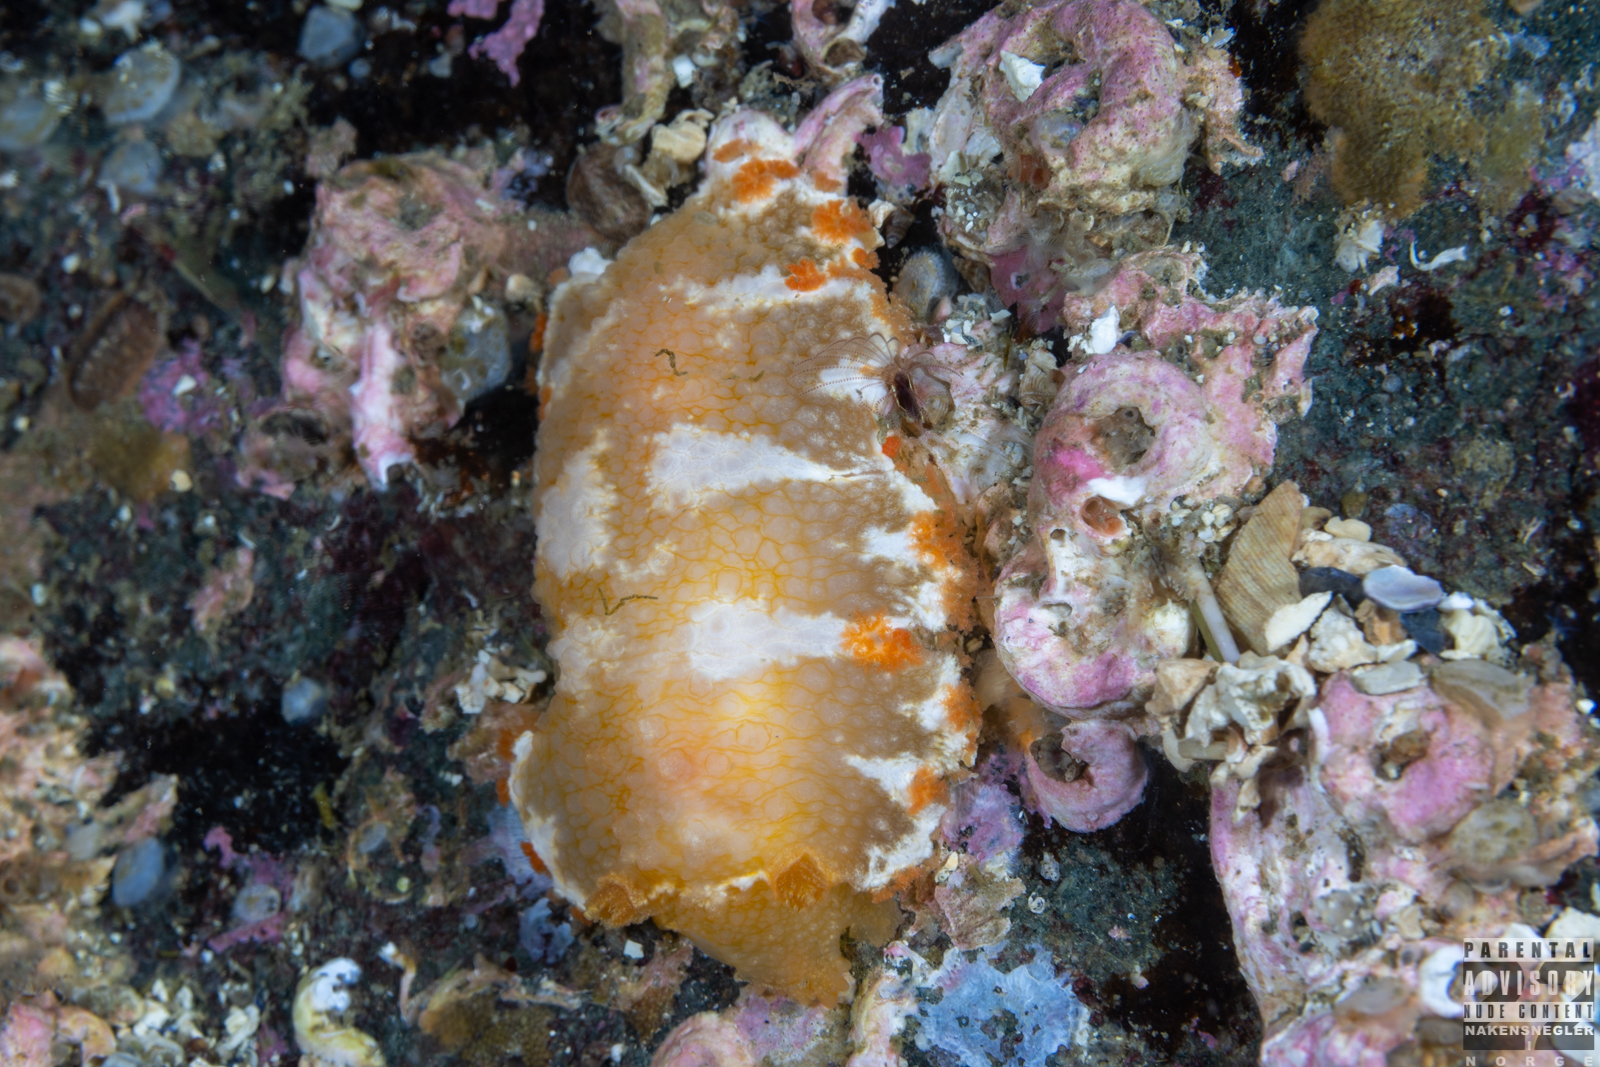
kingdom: Animalia
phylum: Mollusca
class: Gastropoda
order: Nudibranchia
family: Tritoniidae
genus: Tritonia
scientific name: Tritonia hombergii
